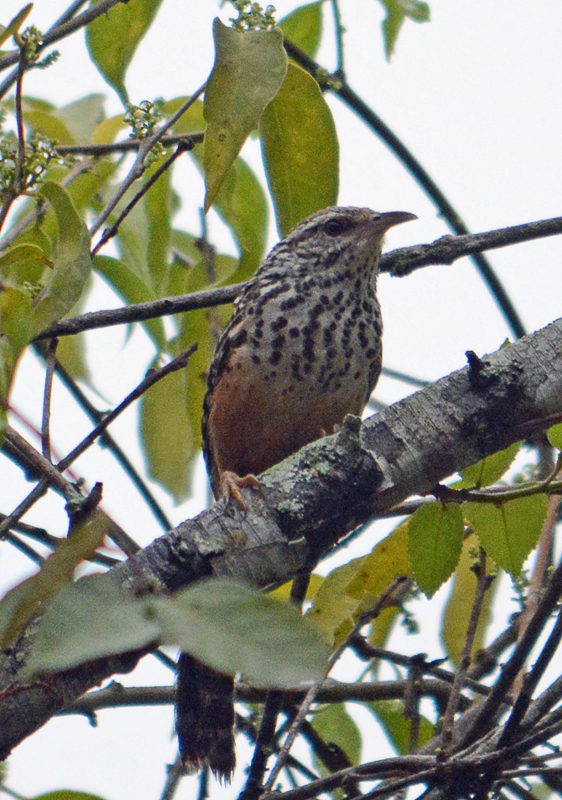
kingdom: Animalia
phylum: Chordata
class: Aves
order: Passeriformes
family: Troglodytidae
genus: Campylorhynchus
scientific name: Campylorhynchus zonatus
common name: Band-backed wren
